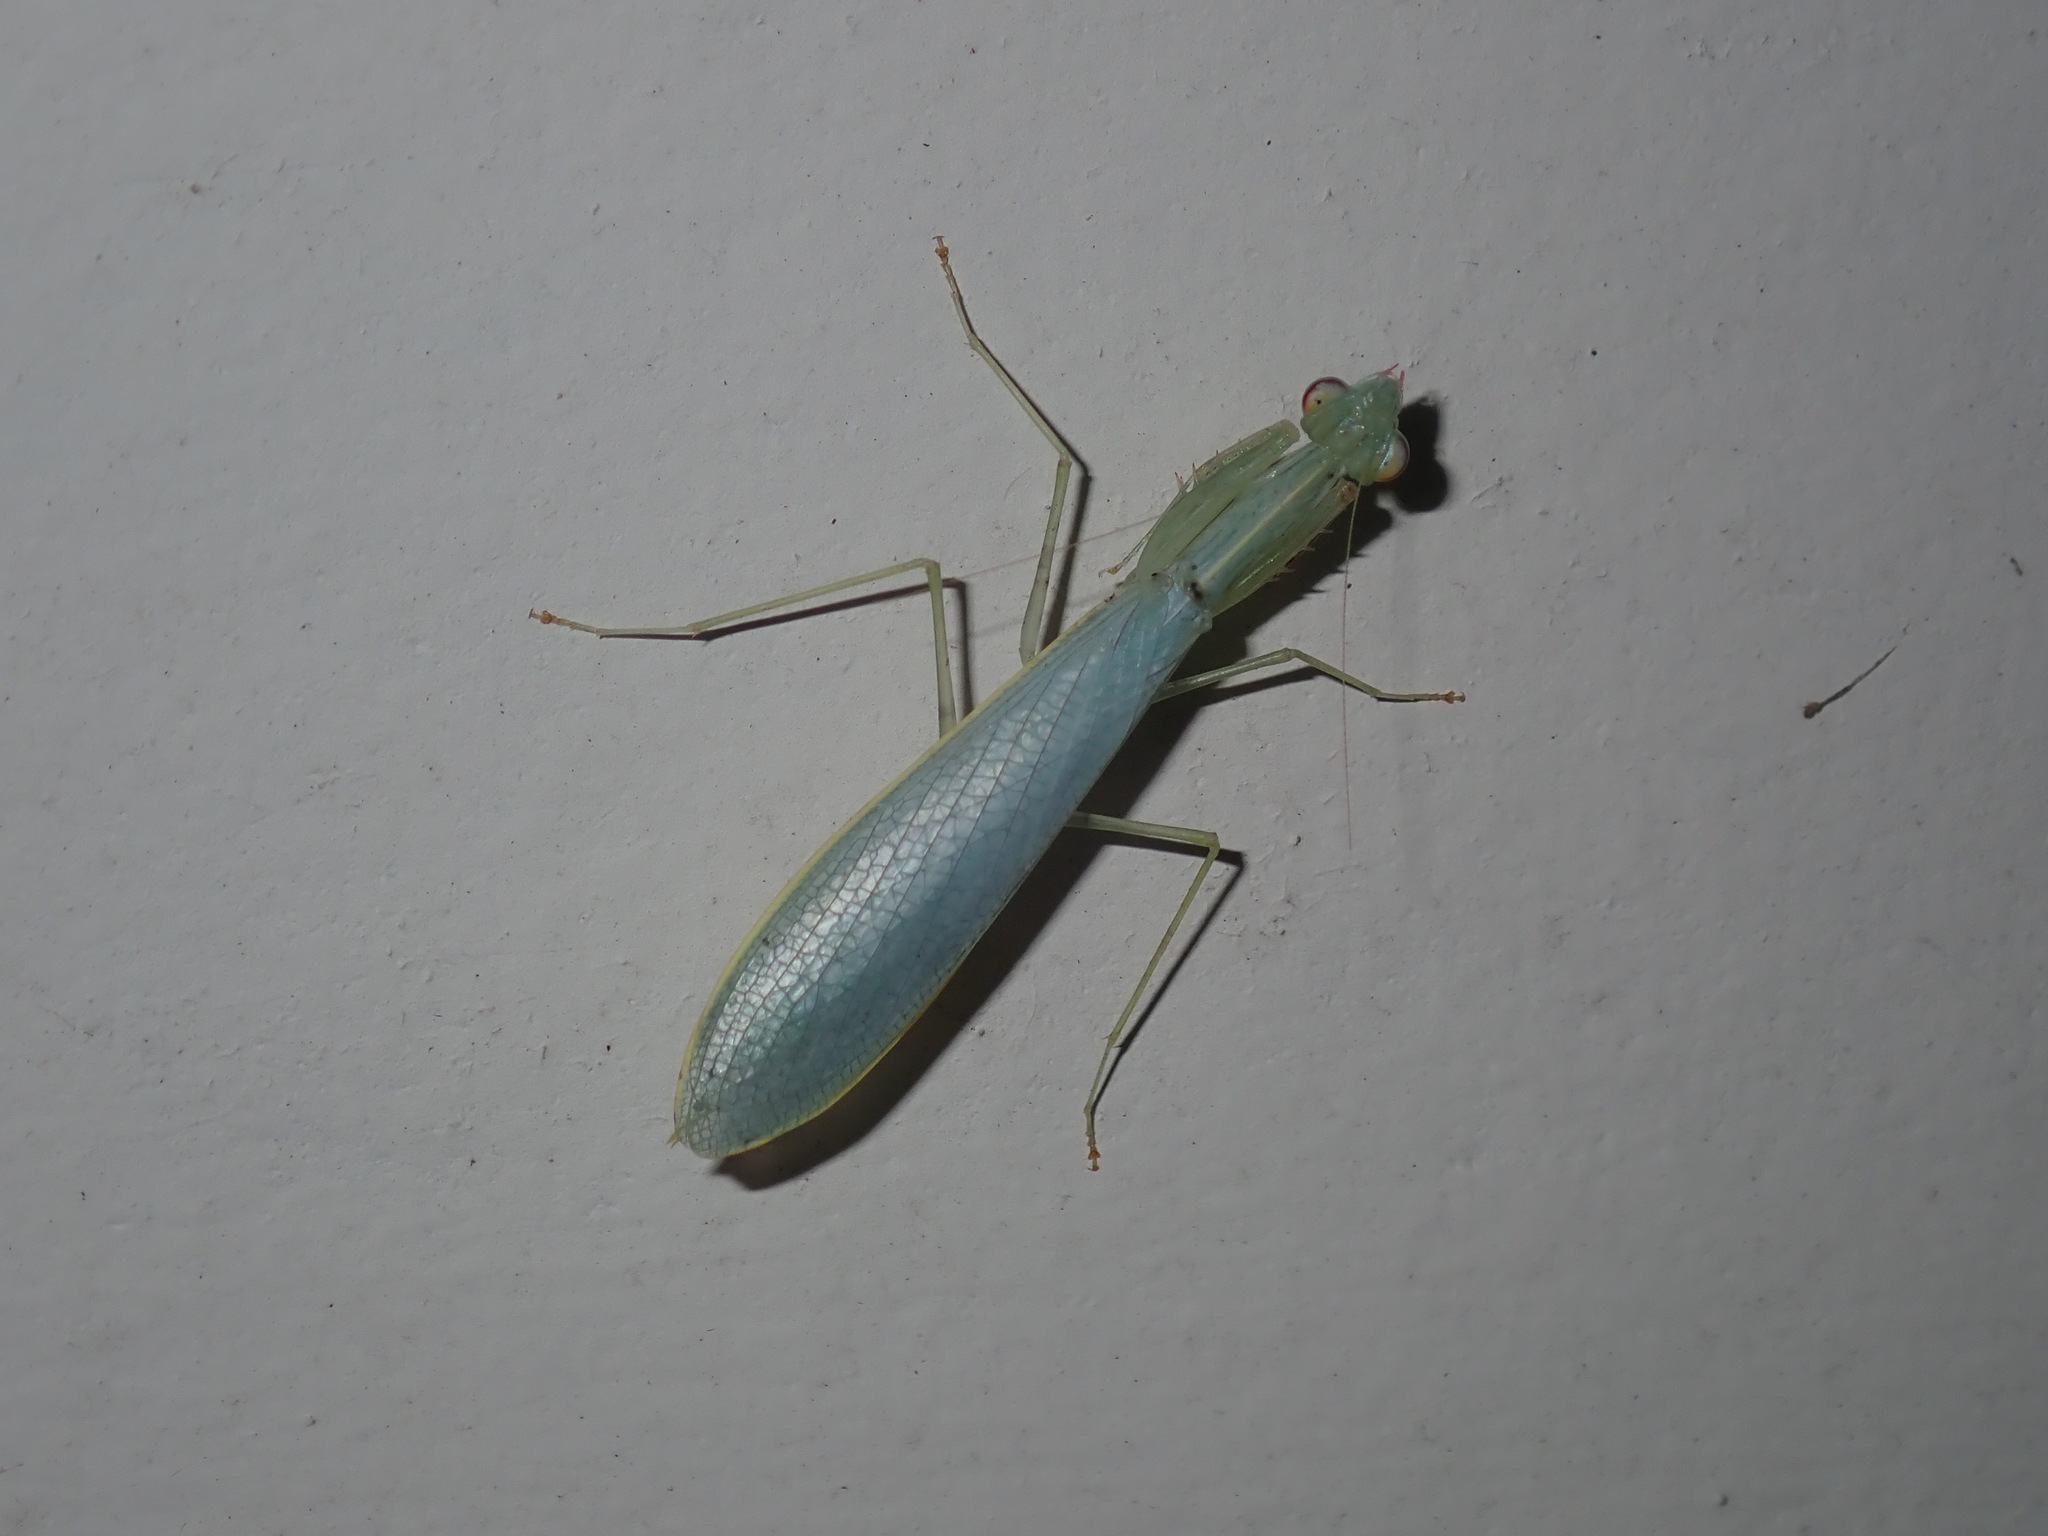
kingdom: Animalia
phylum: Arthropoda
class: Insecta
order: Mantodea
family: Nanomantidae
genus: Kongobatha
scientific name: Kongobatha diademata
